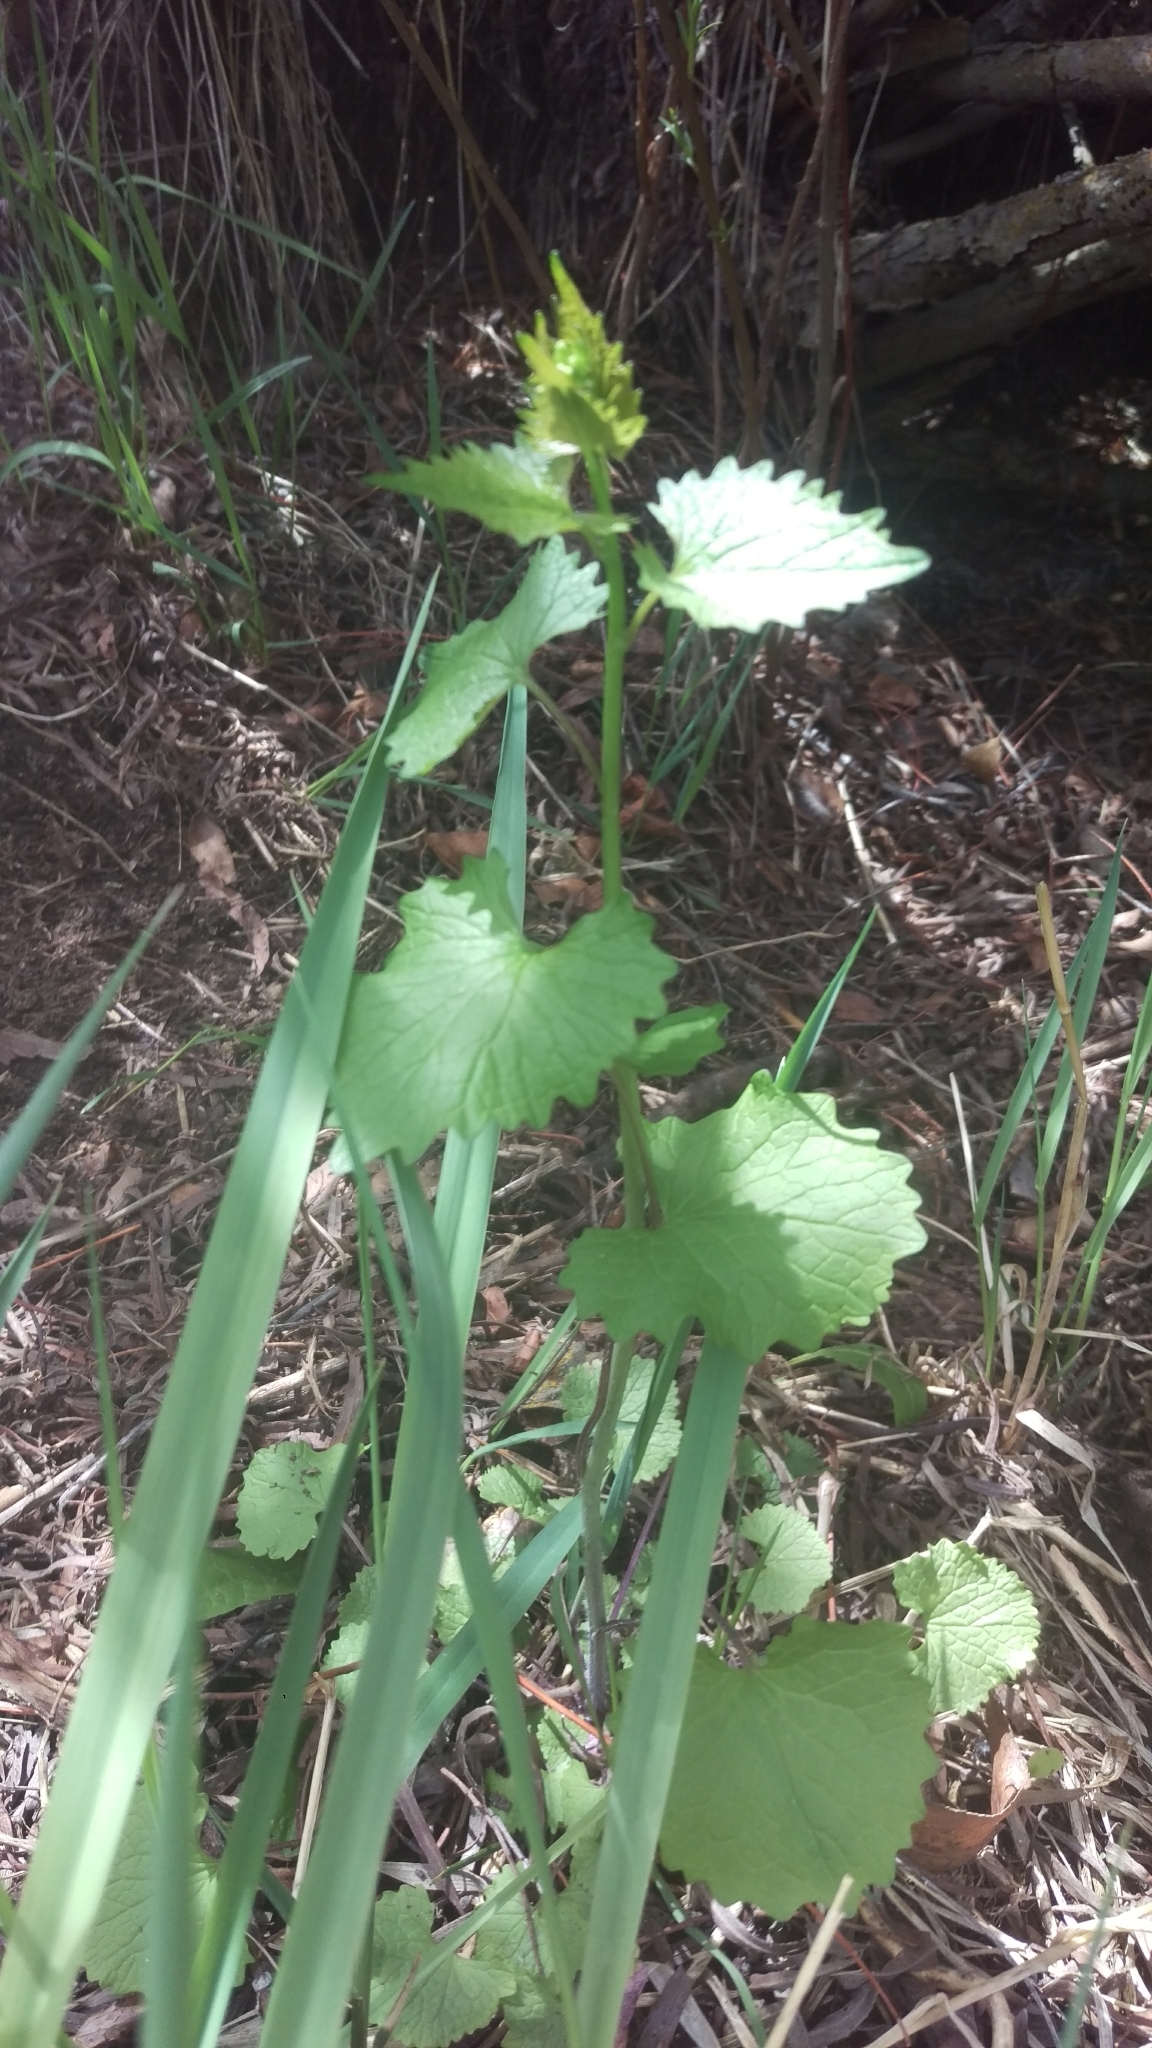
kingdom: Plantae
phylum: Tracheophyta
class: Magnoliopsida
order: Brassicales
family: Brassicaceae
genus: Alliaria
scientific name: Alliaria petiolata
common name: Garlic mustard
